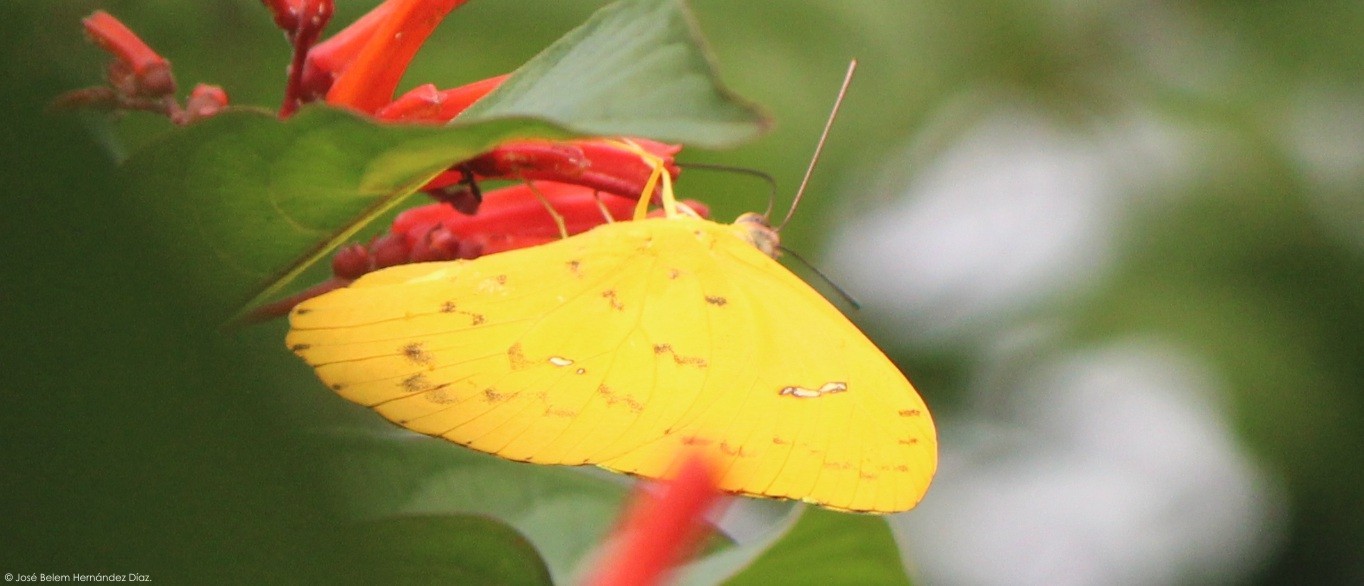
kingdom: Animalia
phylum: Arthropoda
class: Insecta
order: Lepidoptera
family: Pieridae
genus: Phoebis
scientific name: Phoebis philea
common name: Orange-barred giant sulphur
